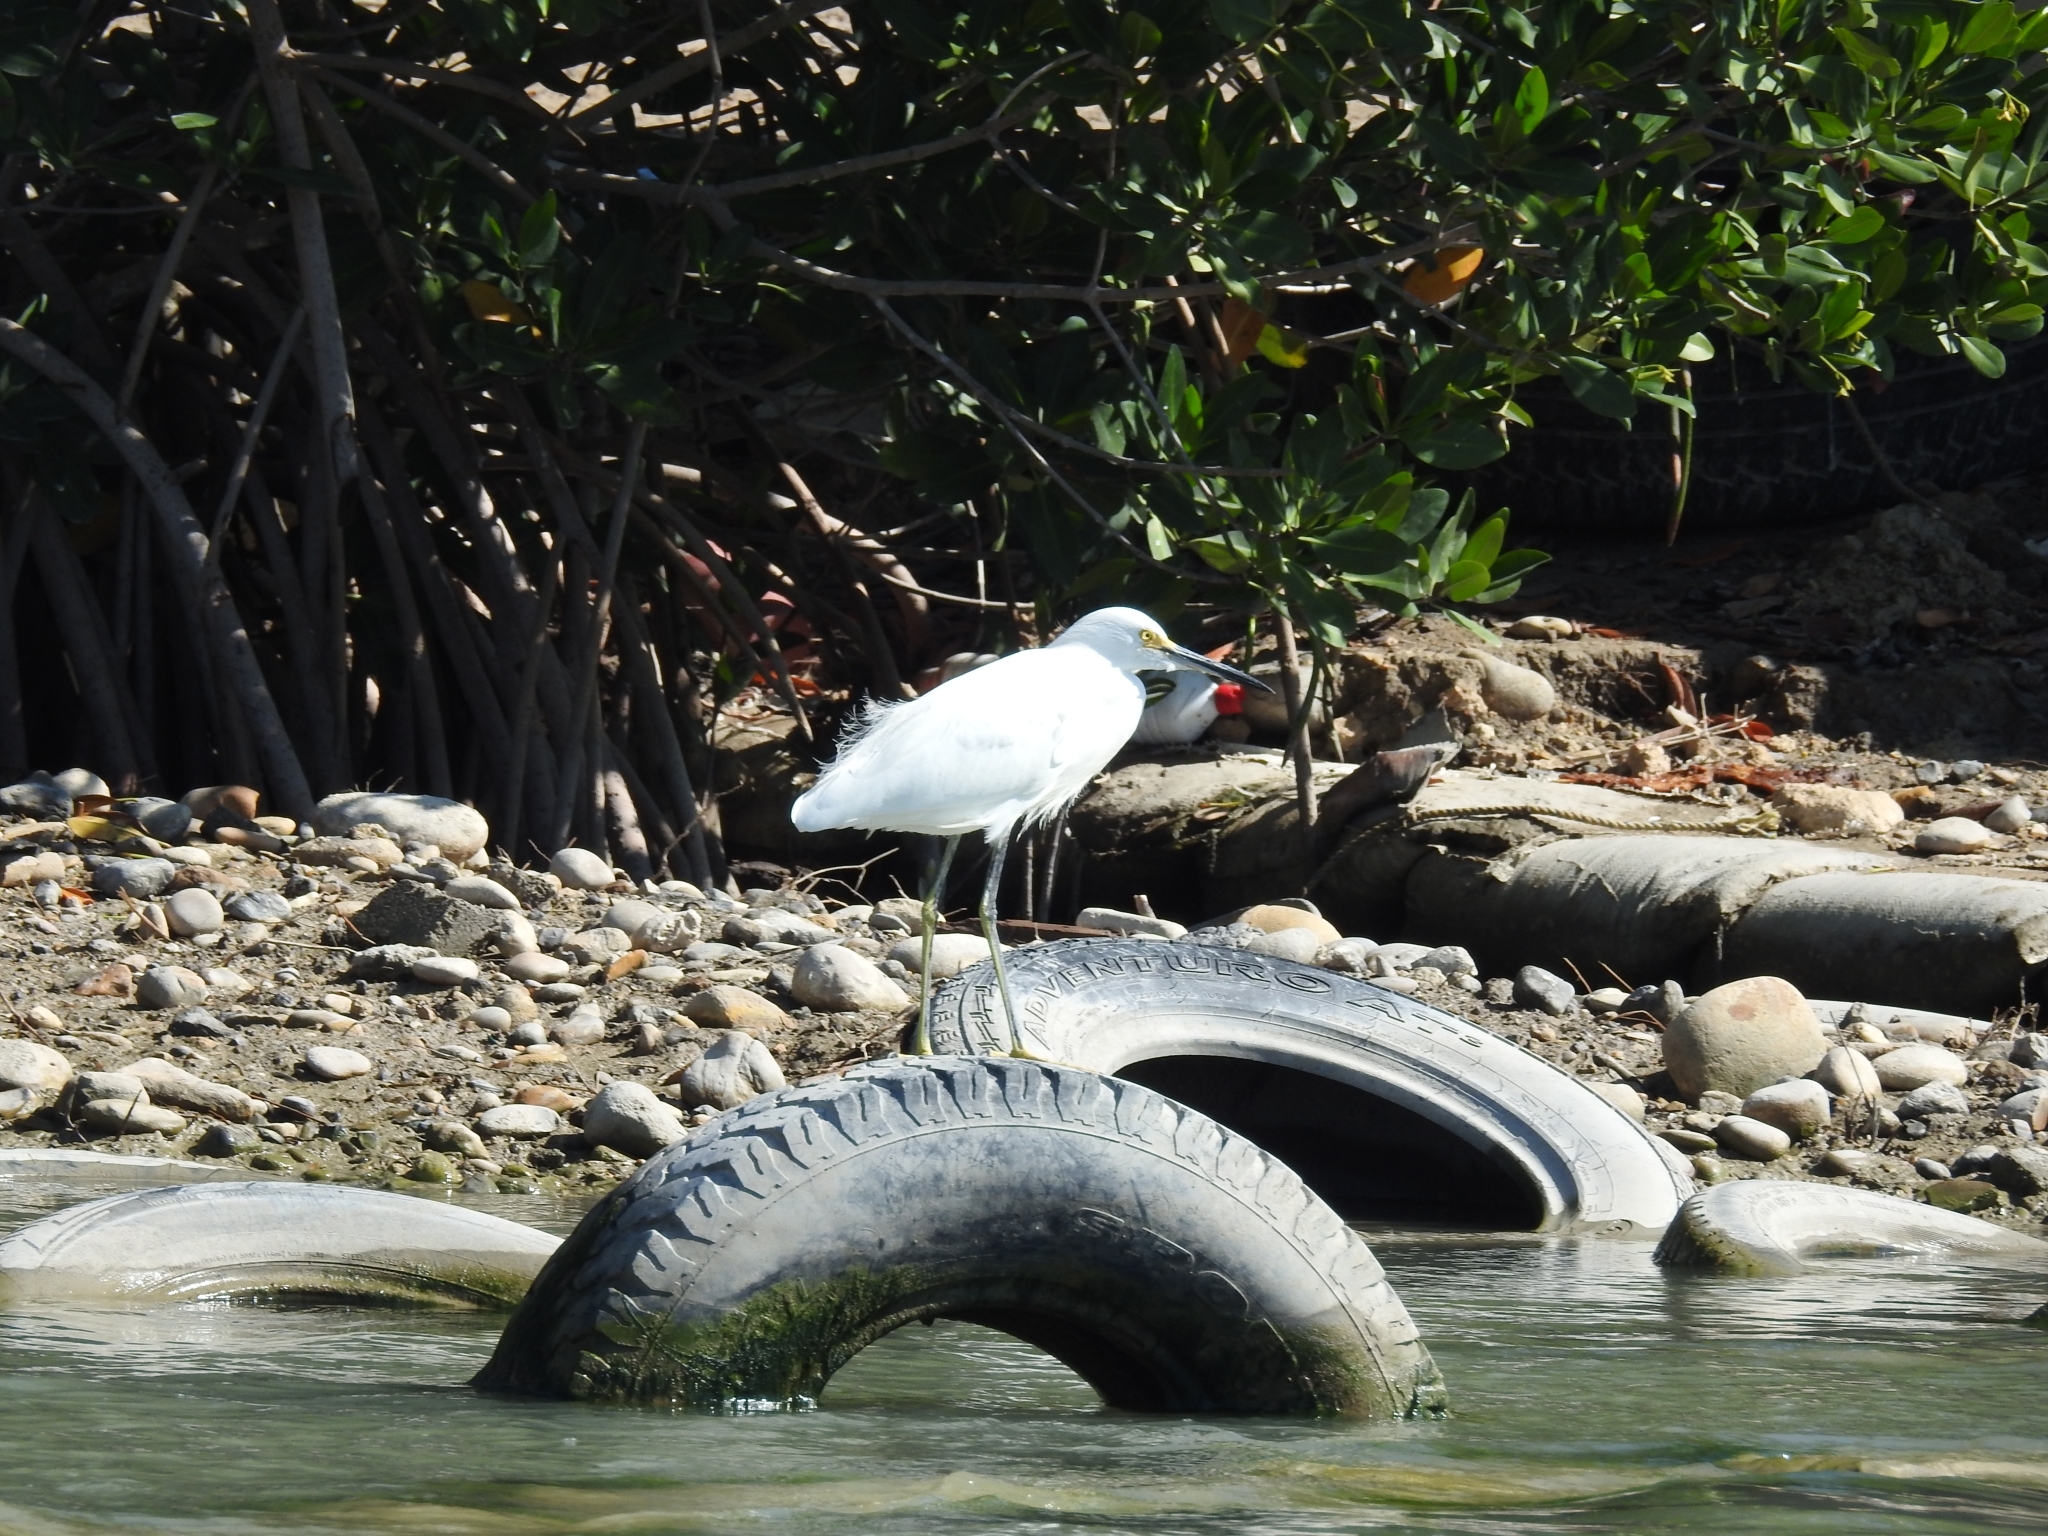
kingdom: Animalia
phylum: Chordata
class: Aves
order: Pelecaniformes
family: Ardeidae
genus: Egretta
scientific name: Egretta thula
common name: Snowy egret
